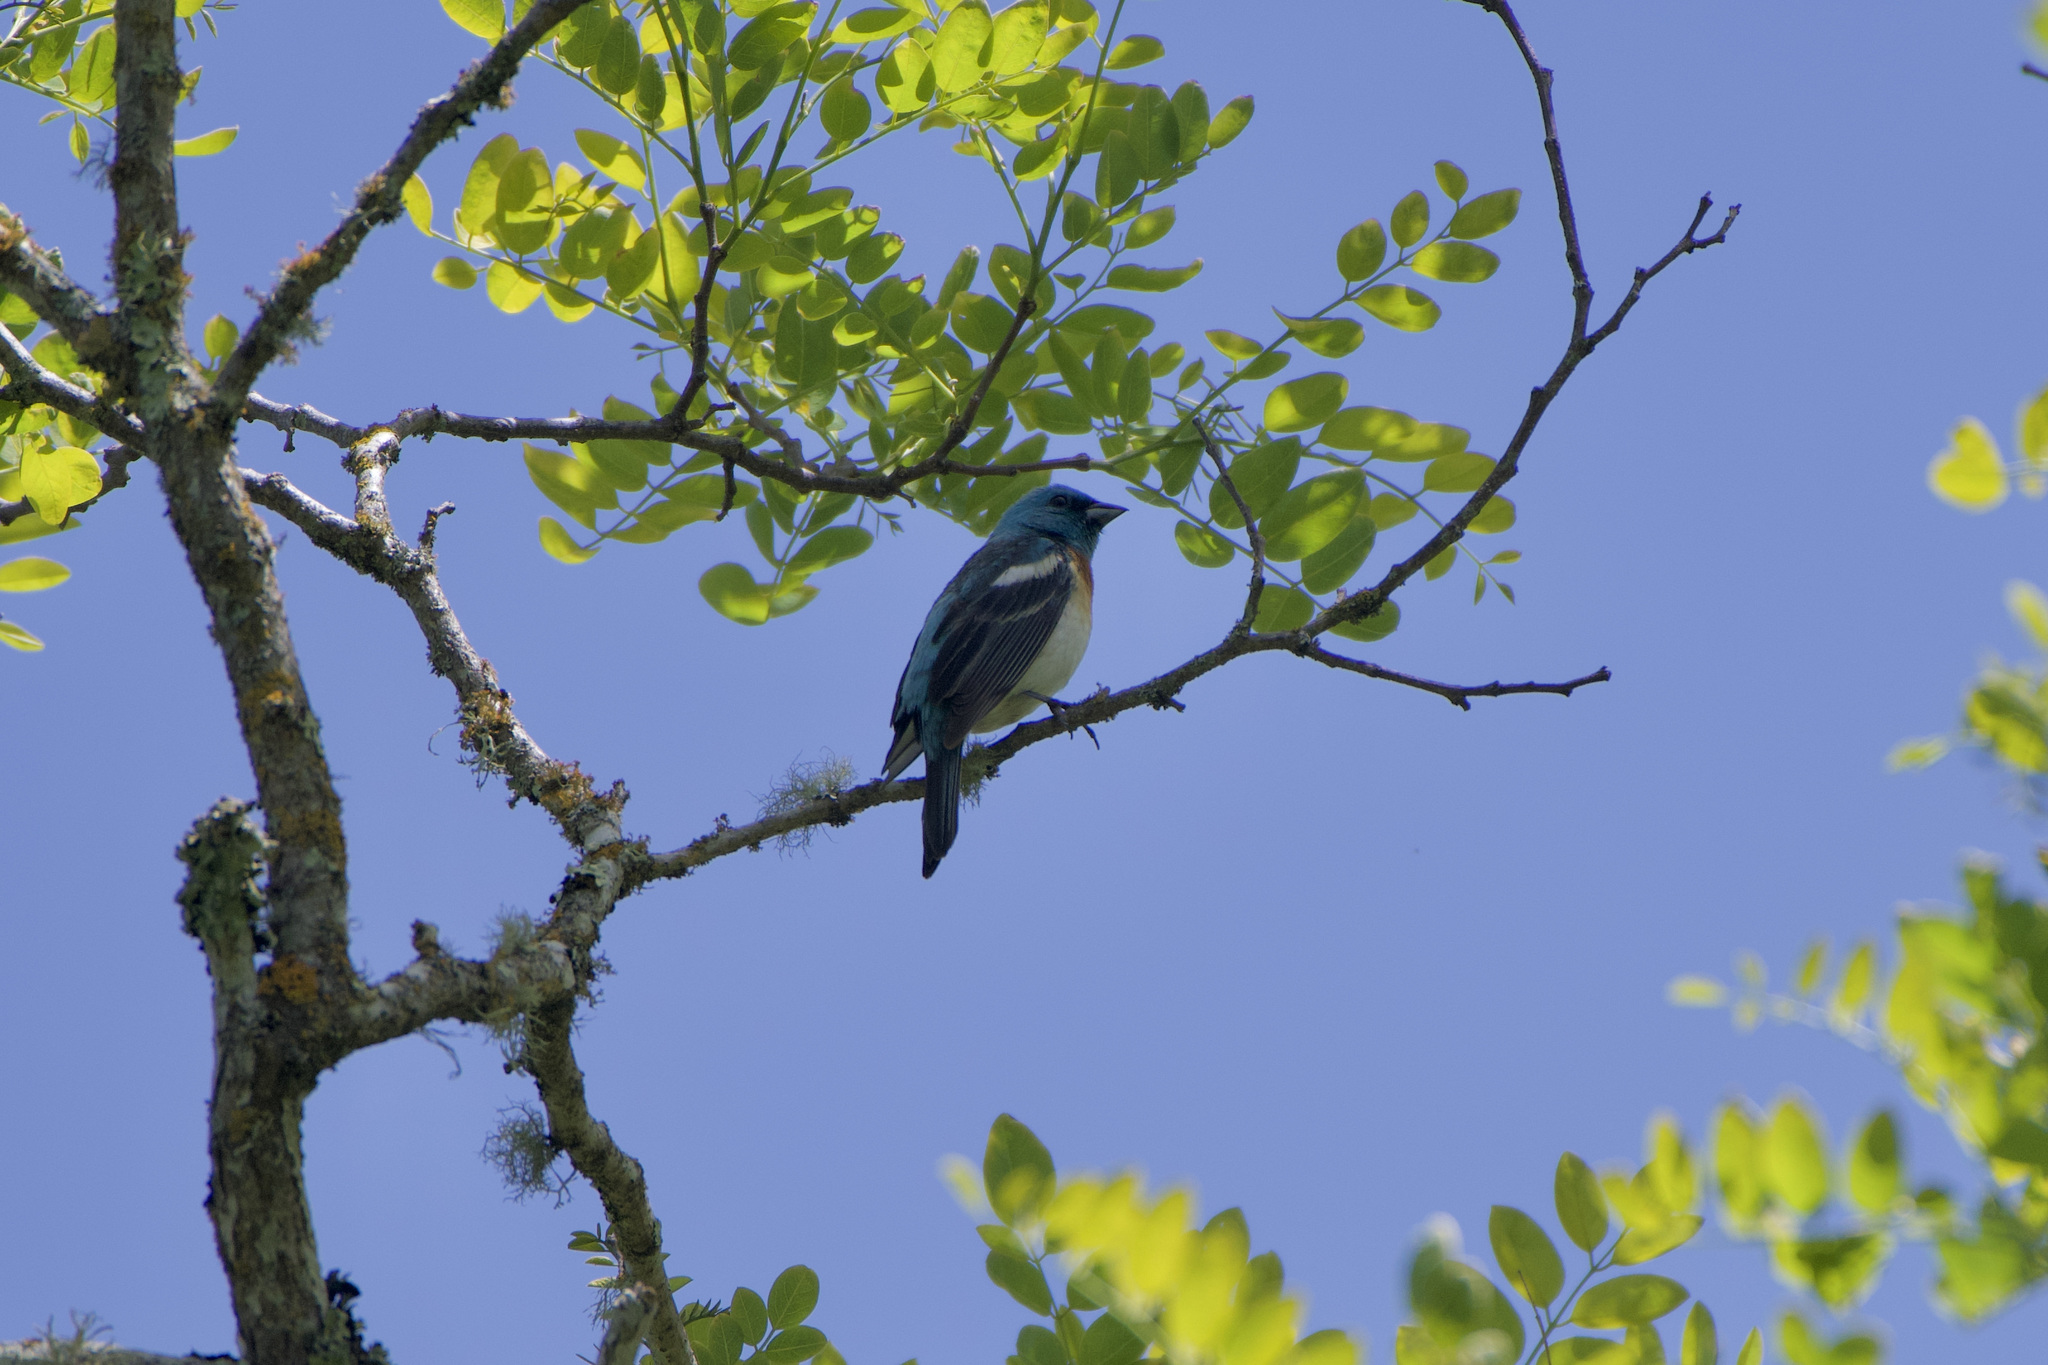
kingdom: Animalia
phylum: Chordata
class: Aves
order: Passeriformes
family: Cardinalidae
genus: Passerina
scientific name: Passerina amoena
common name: Lazuli bunting
